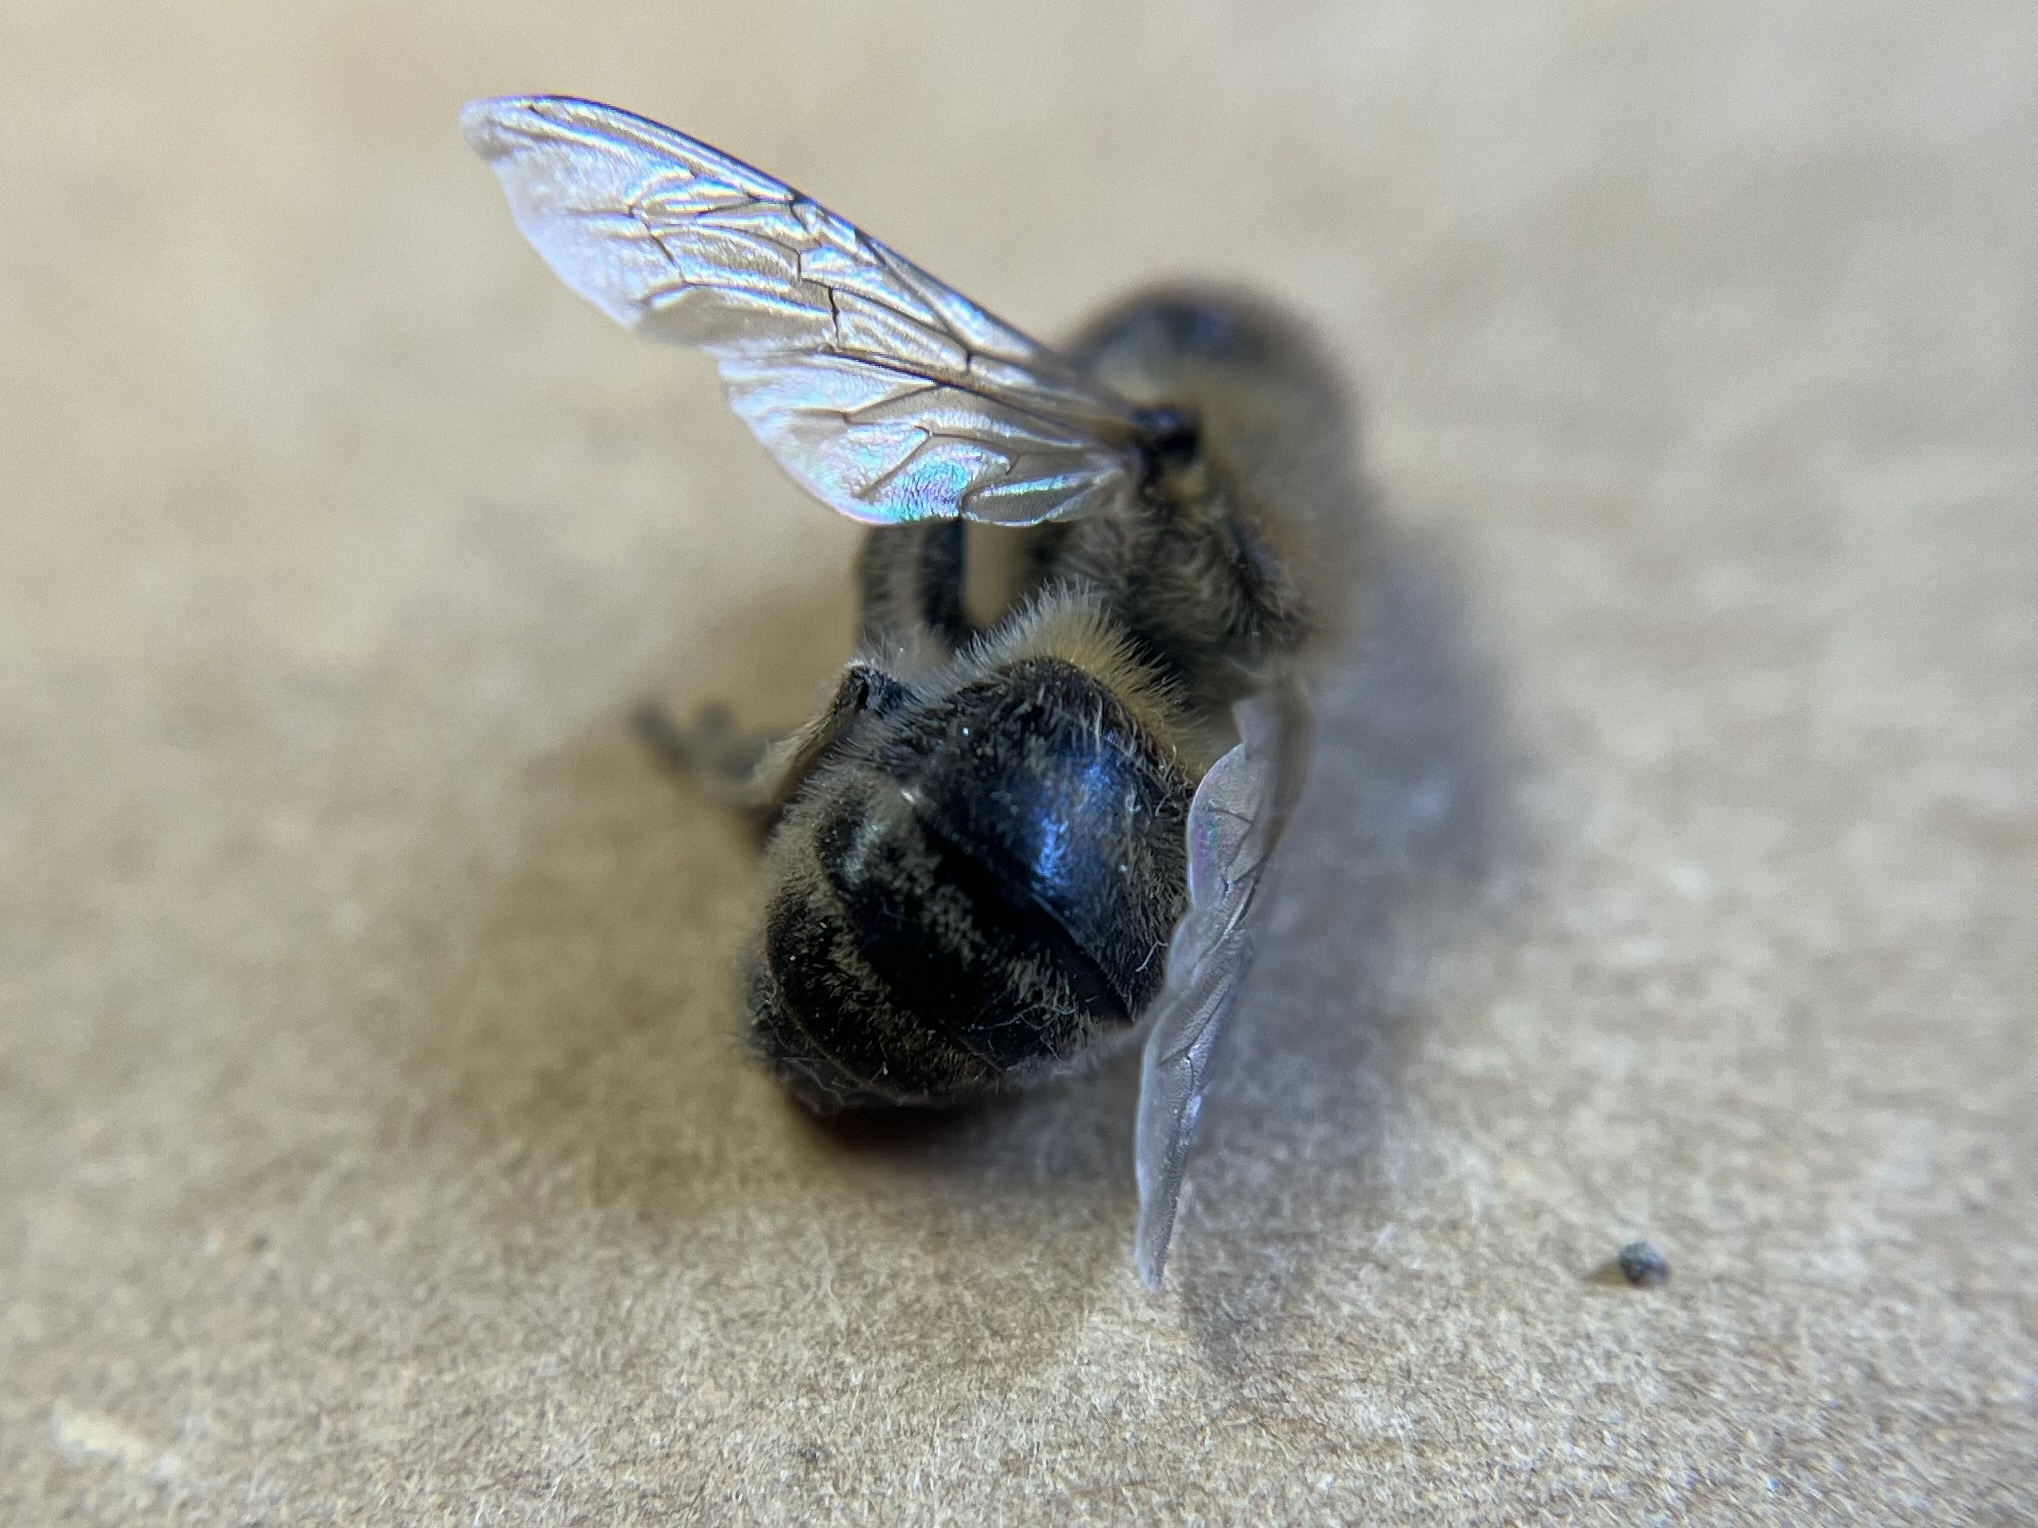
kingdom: Animalia
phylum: Arthropoda
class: Insecta
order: Hymenoptera
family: Apidae
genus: Apis
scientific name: Apis mellifera
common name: Honey bee
